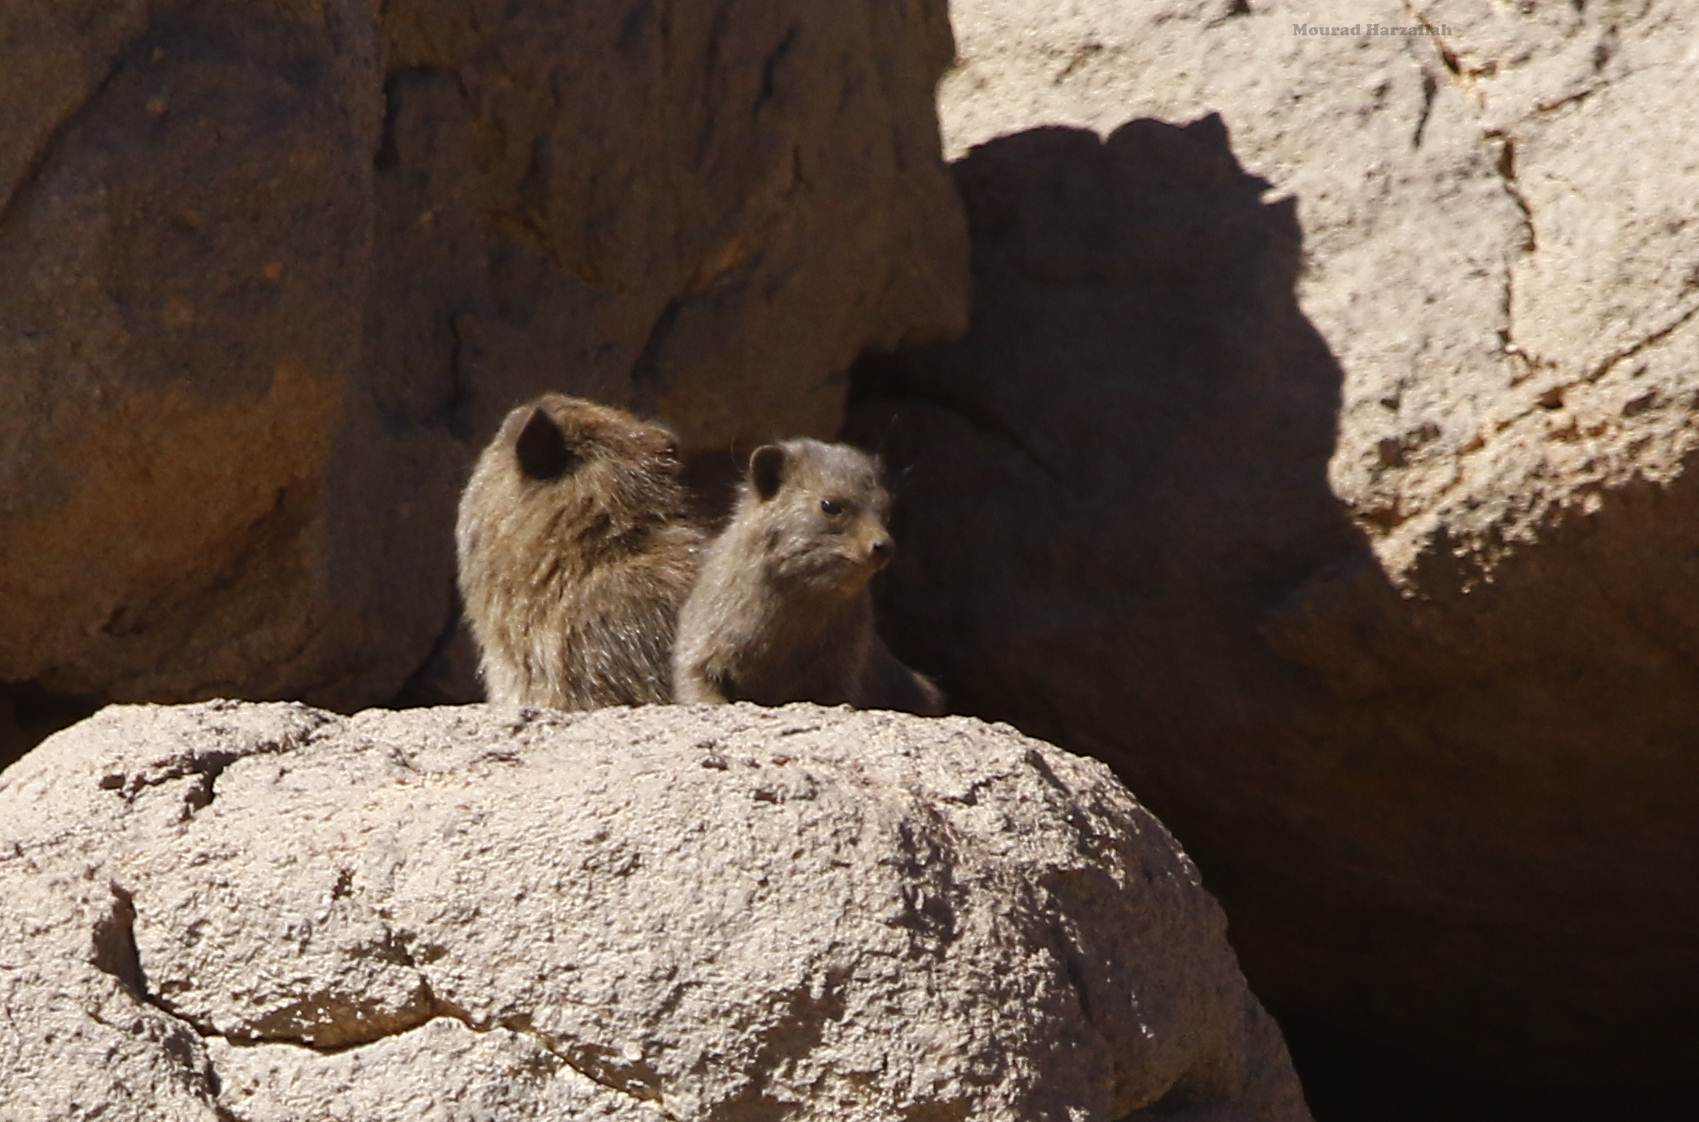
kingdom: Animalia
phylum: Chordata
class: Mammalia
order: Hyracoidea
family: Procaviidae
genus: Procavia
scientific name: Procavia capensis
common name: Rock hyrax
